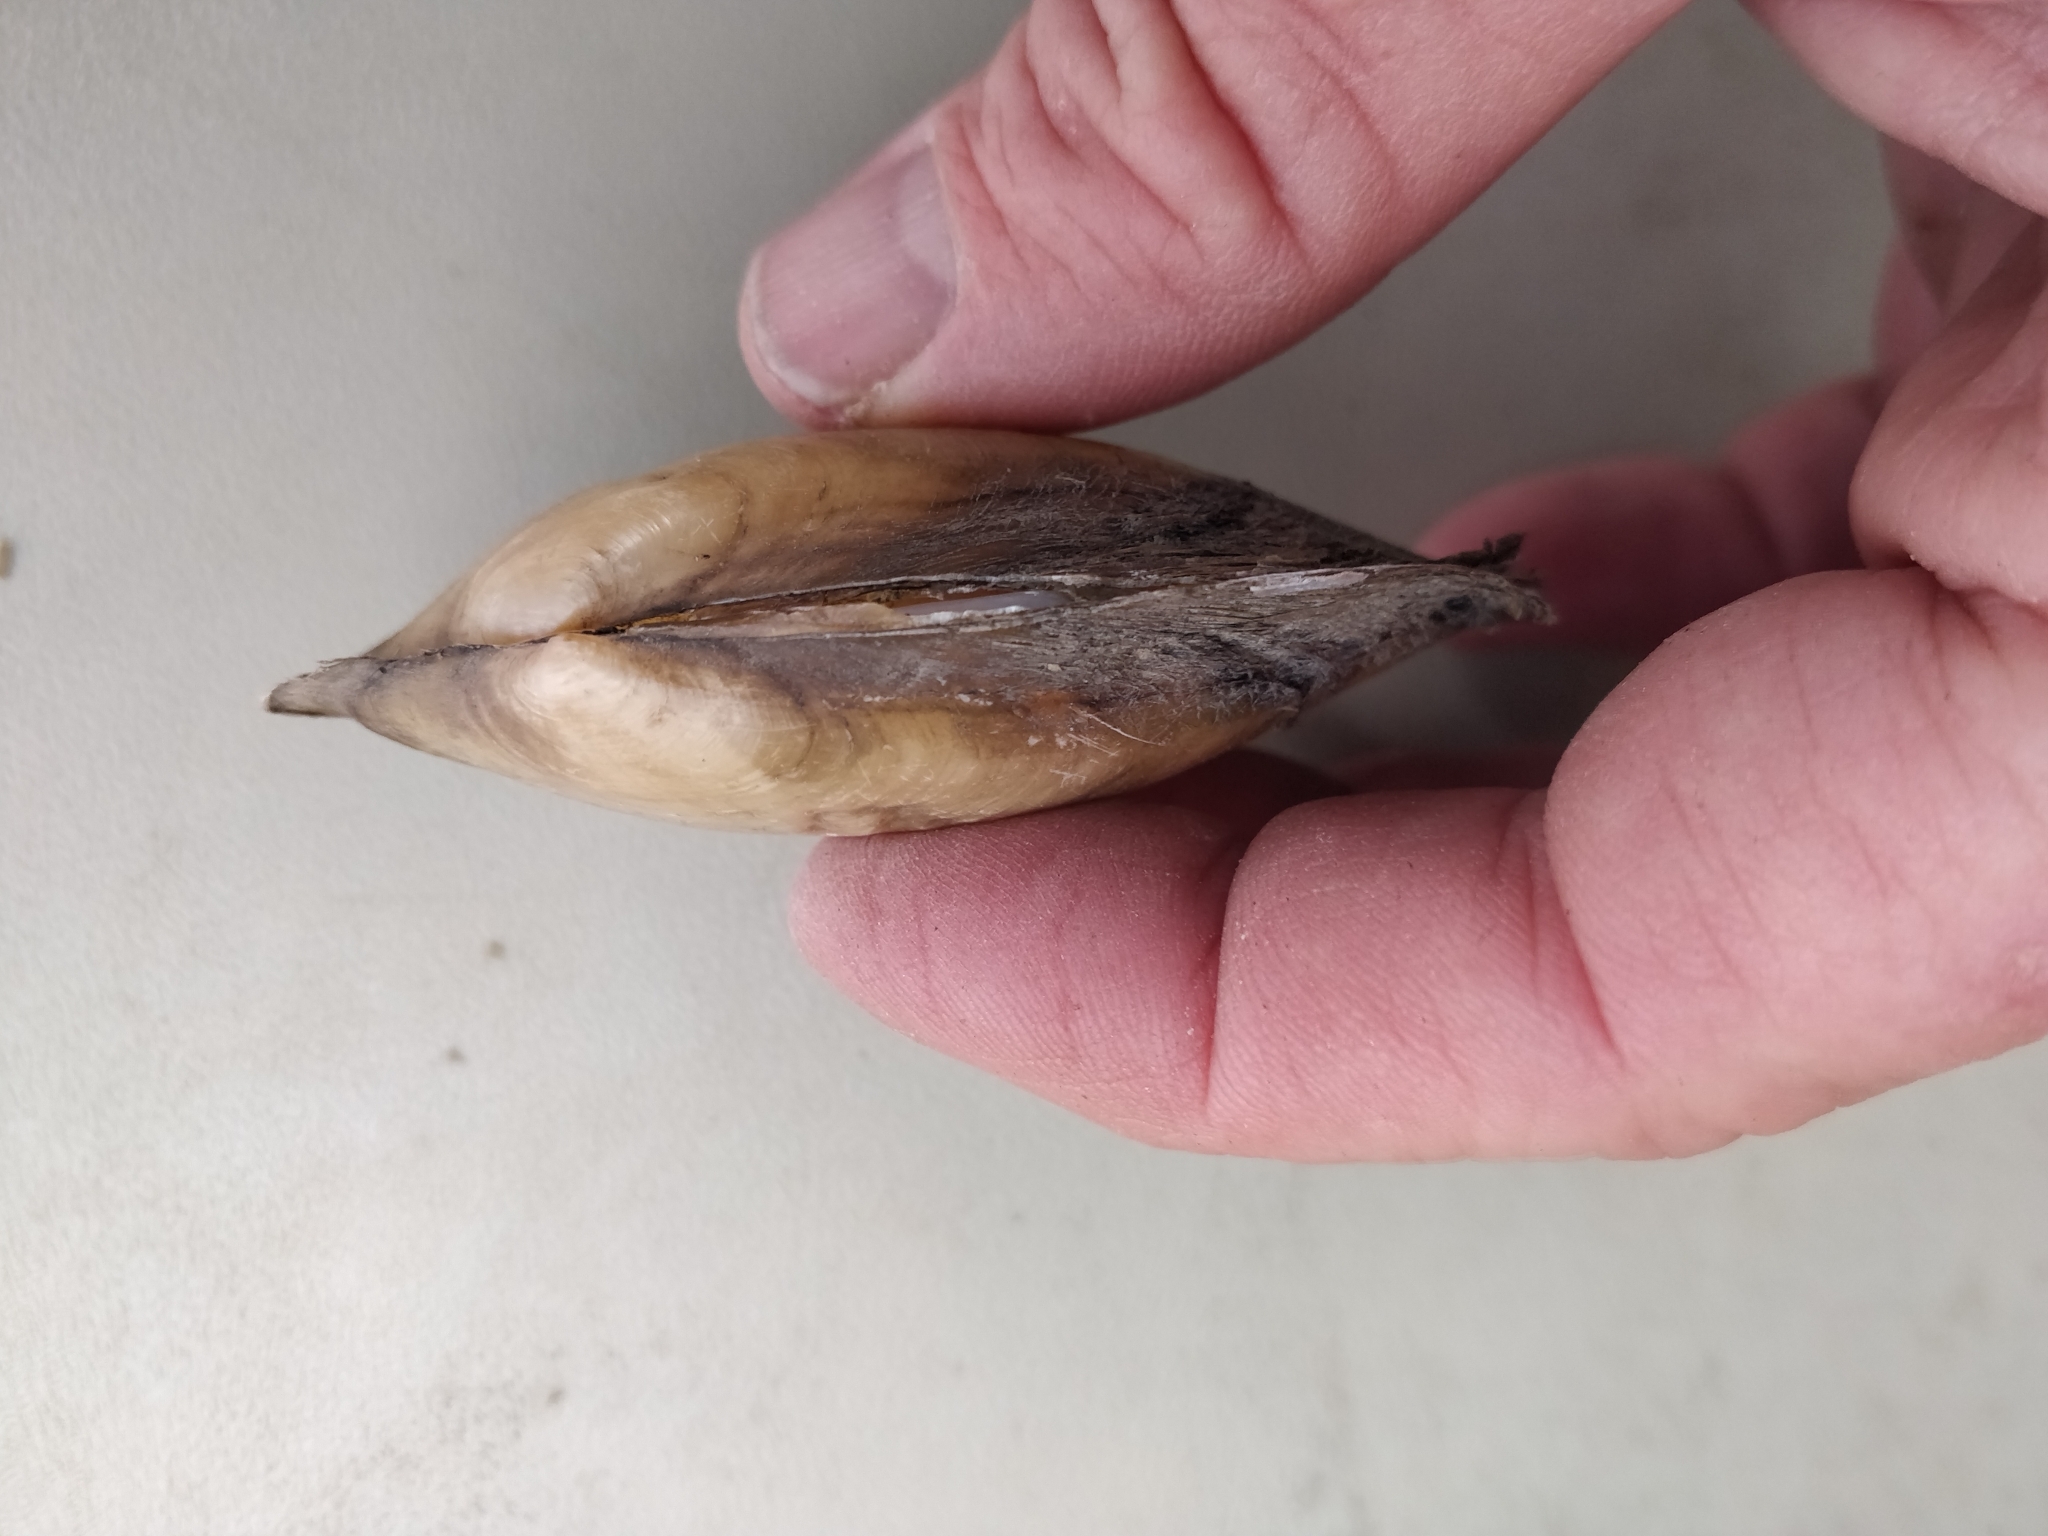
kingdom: Animalia
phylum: Mollusca
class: Bivalvia
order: Unionida
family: Unionidae
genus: Potamilus
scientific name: Potamilus fragilis
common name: Fragile papershell
